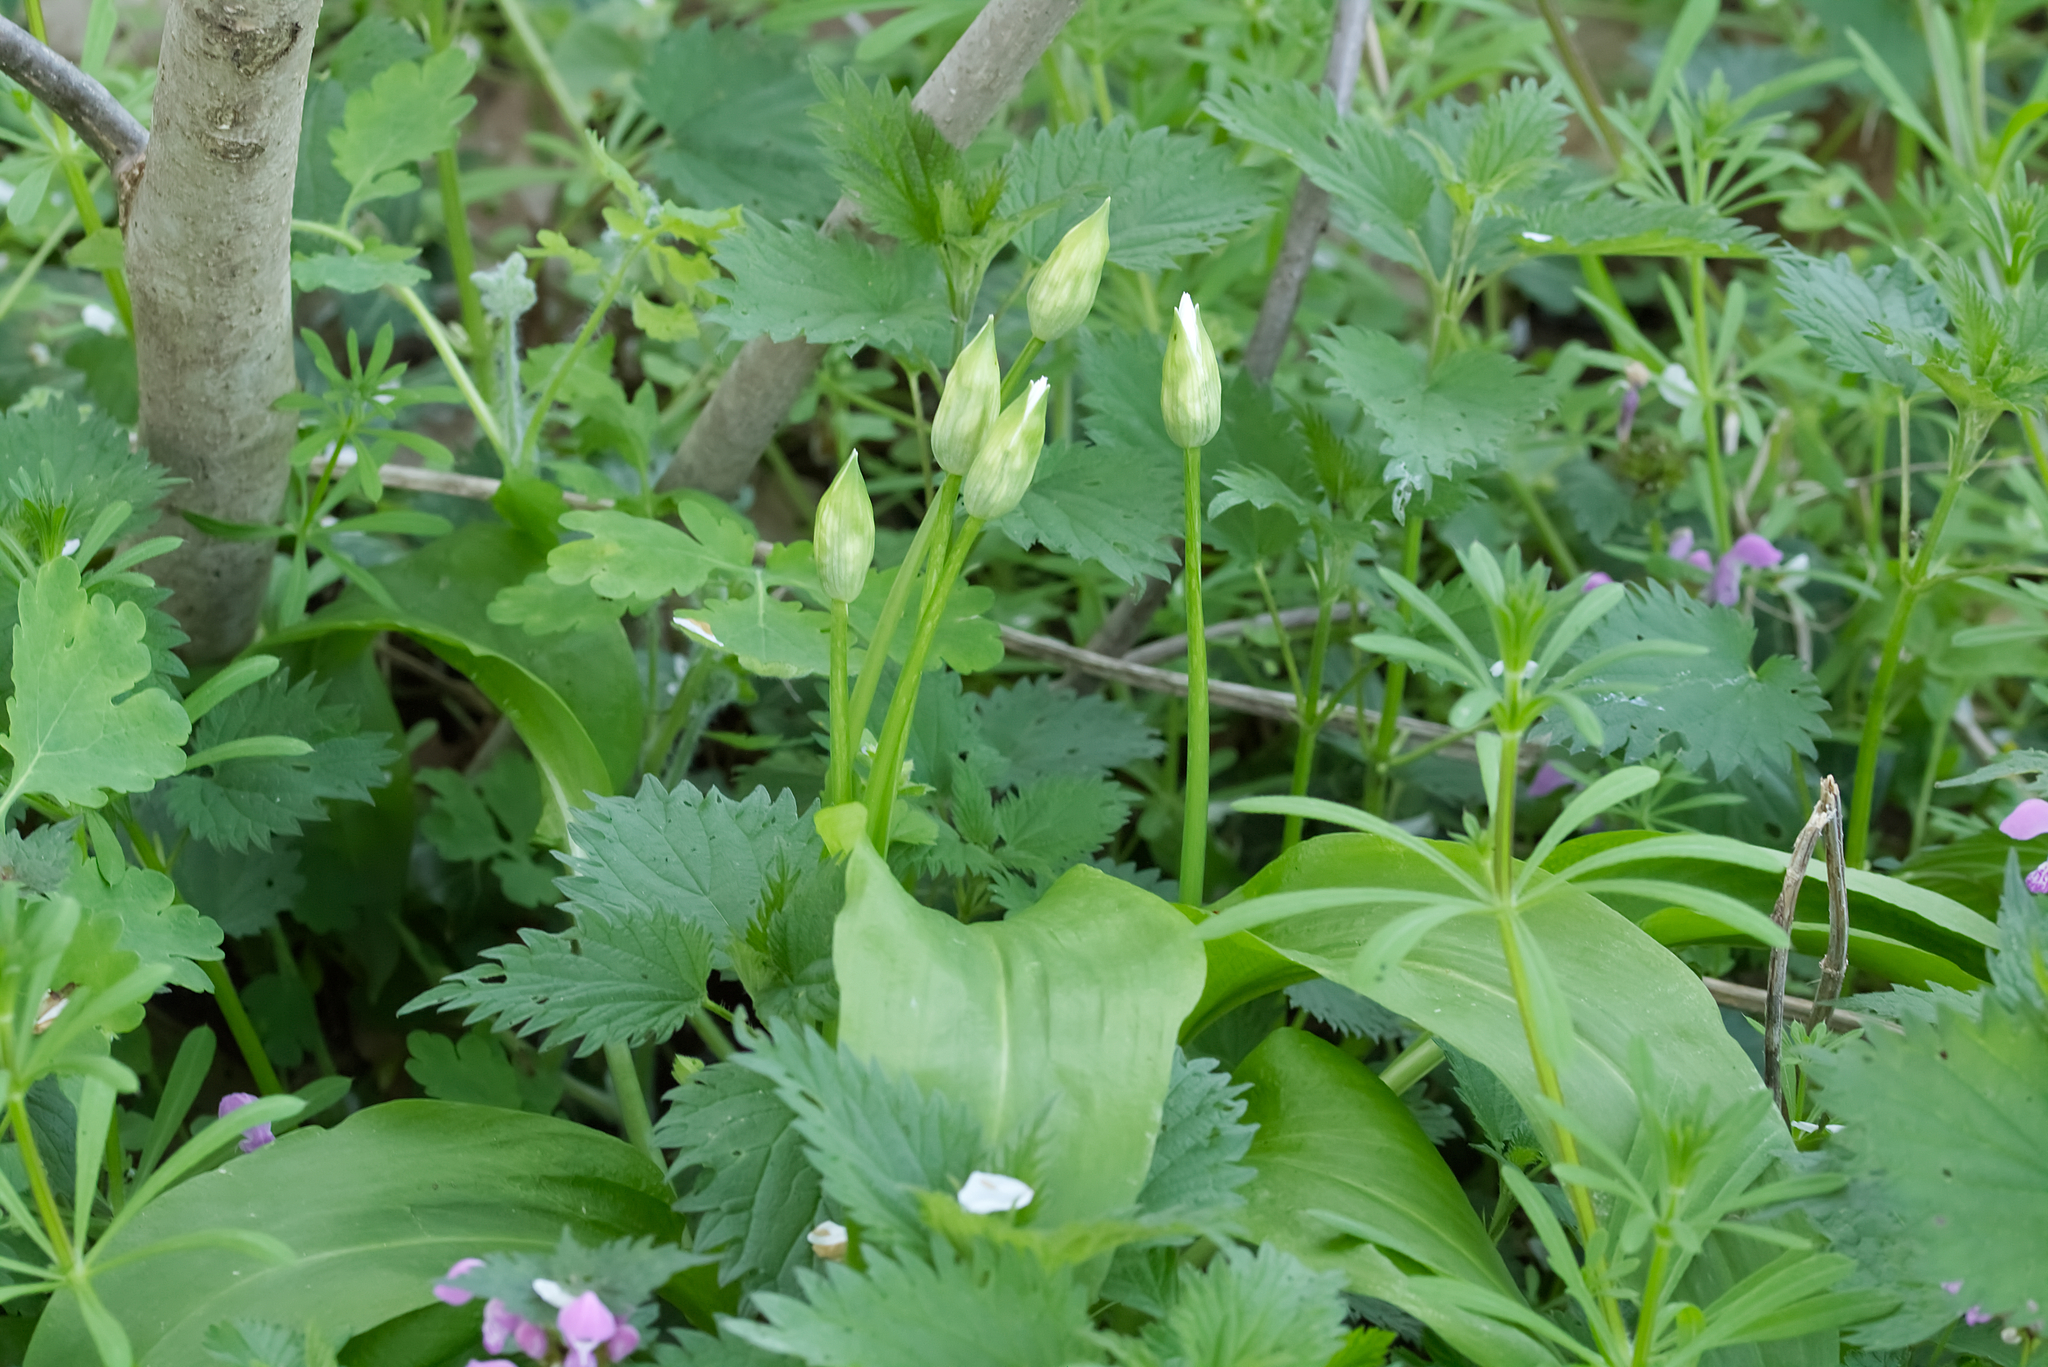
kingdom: Plantae
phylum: Tracheophyta
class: Liliopsida
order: Asparagales
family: Amaryllidaceae
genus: Allium
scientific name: Allium ursinum
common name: Ramsons
